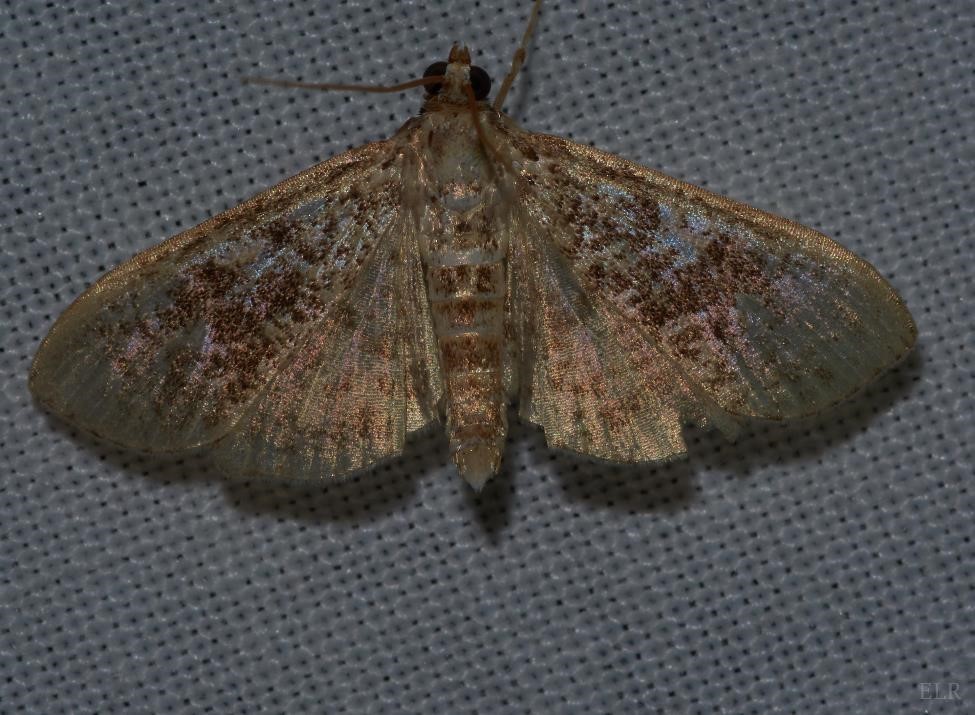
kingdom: Animalia
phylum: Arthropoda
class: Insecta
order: Lepidoptera
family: Crambidae
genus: Palpita
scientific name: Palpita freemanalis
